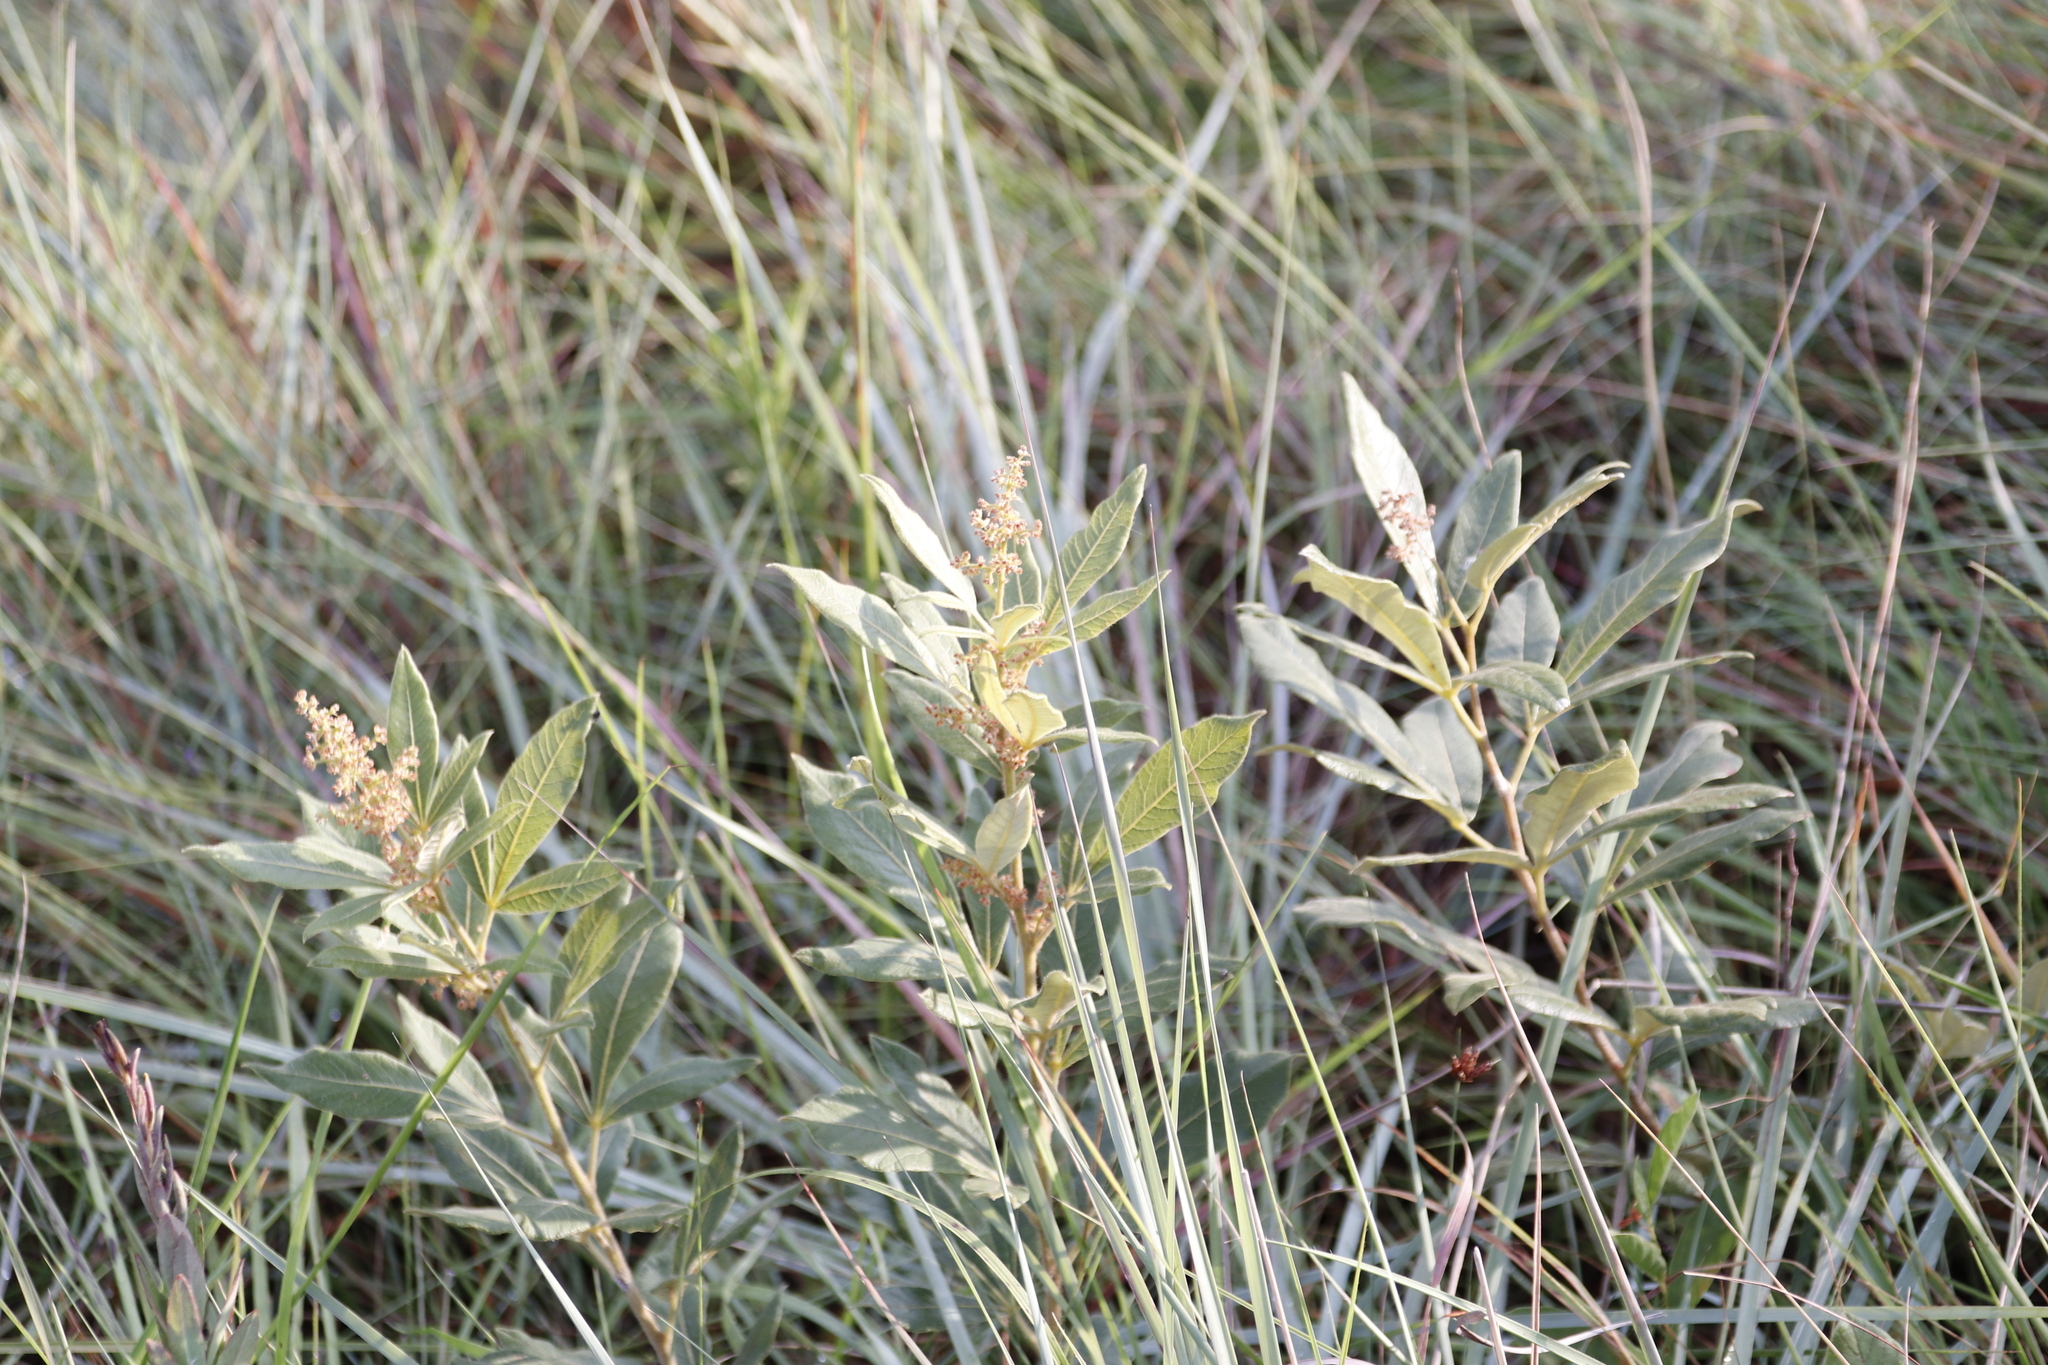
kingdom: Plantae
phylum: Tracheophyta
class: Magnoliopsida
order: Sapindales
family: Anacardiaceae
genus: Searsia
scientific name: Searsia discolor
